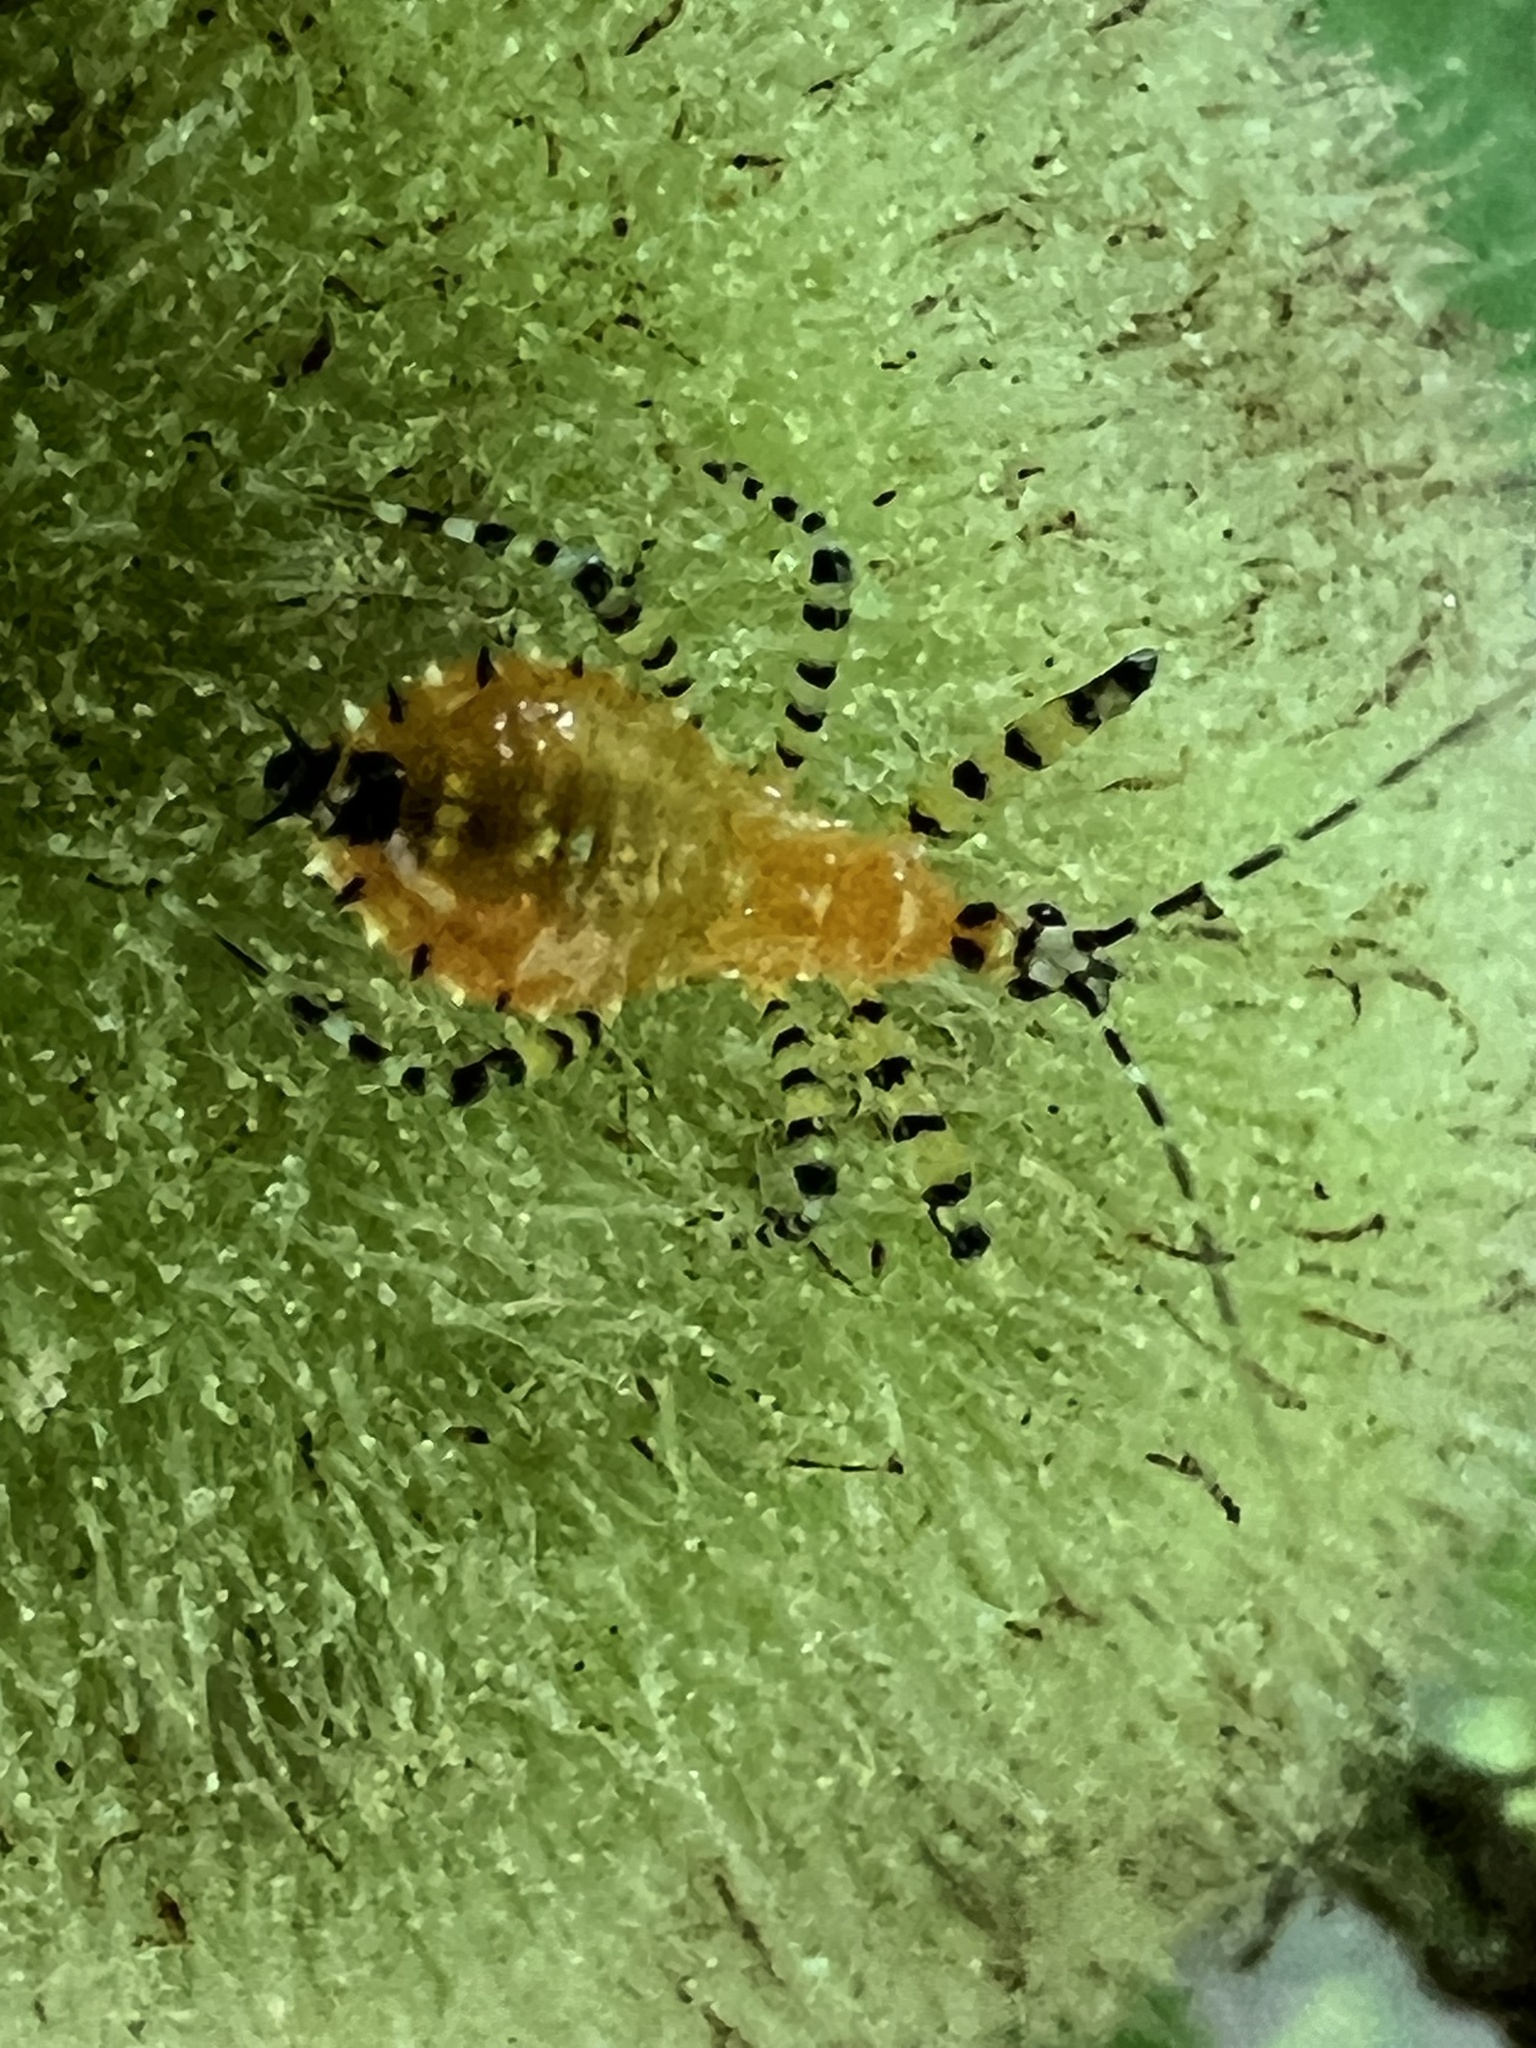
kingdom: Animalia
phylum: Arthropoda
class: Insecta
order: Hemiptera
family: Reduviidae
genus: Pselliopus
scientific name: Pselliopus barberi
